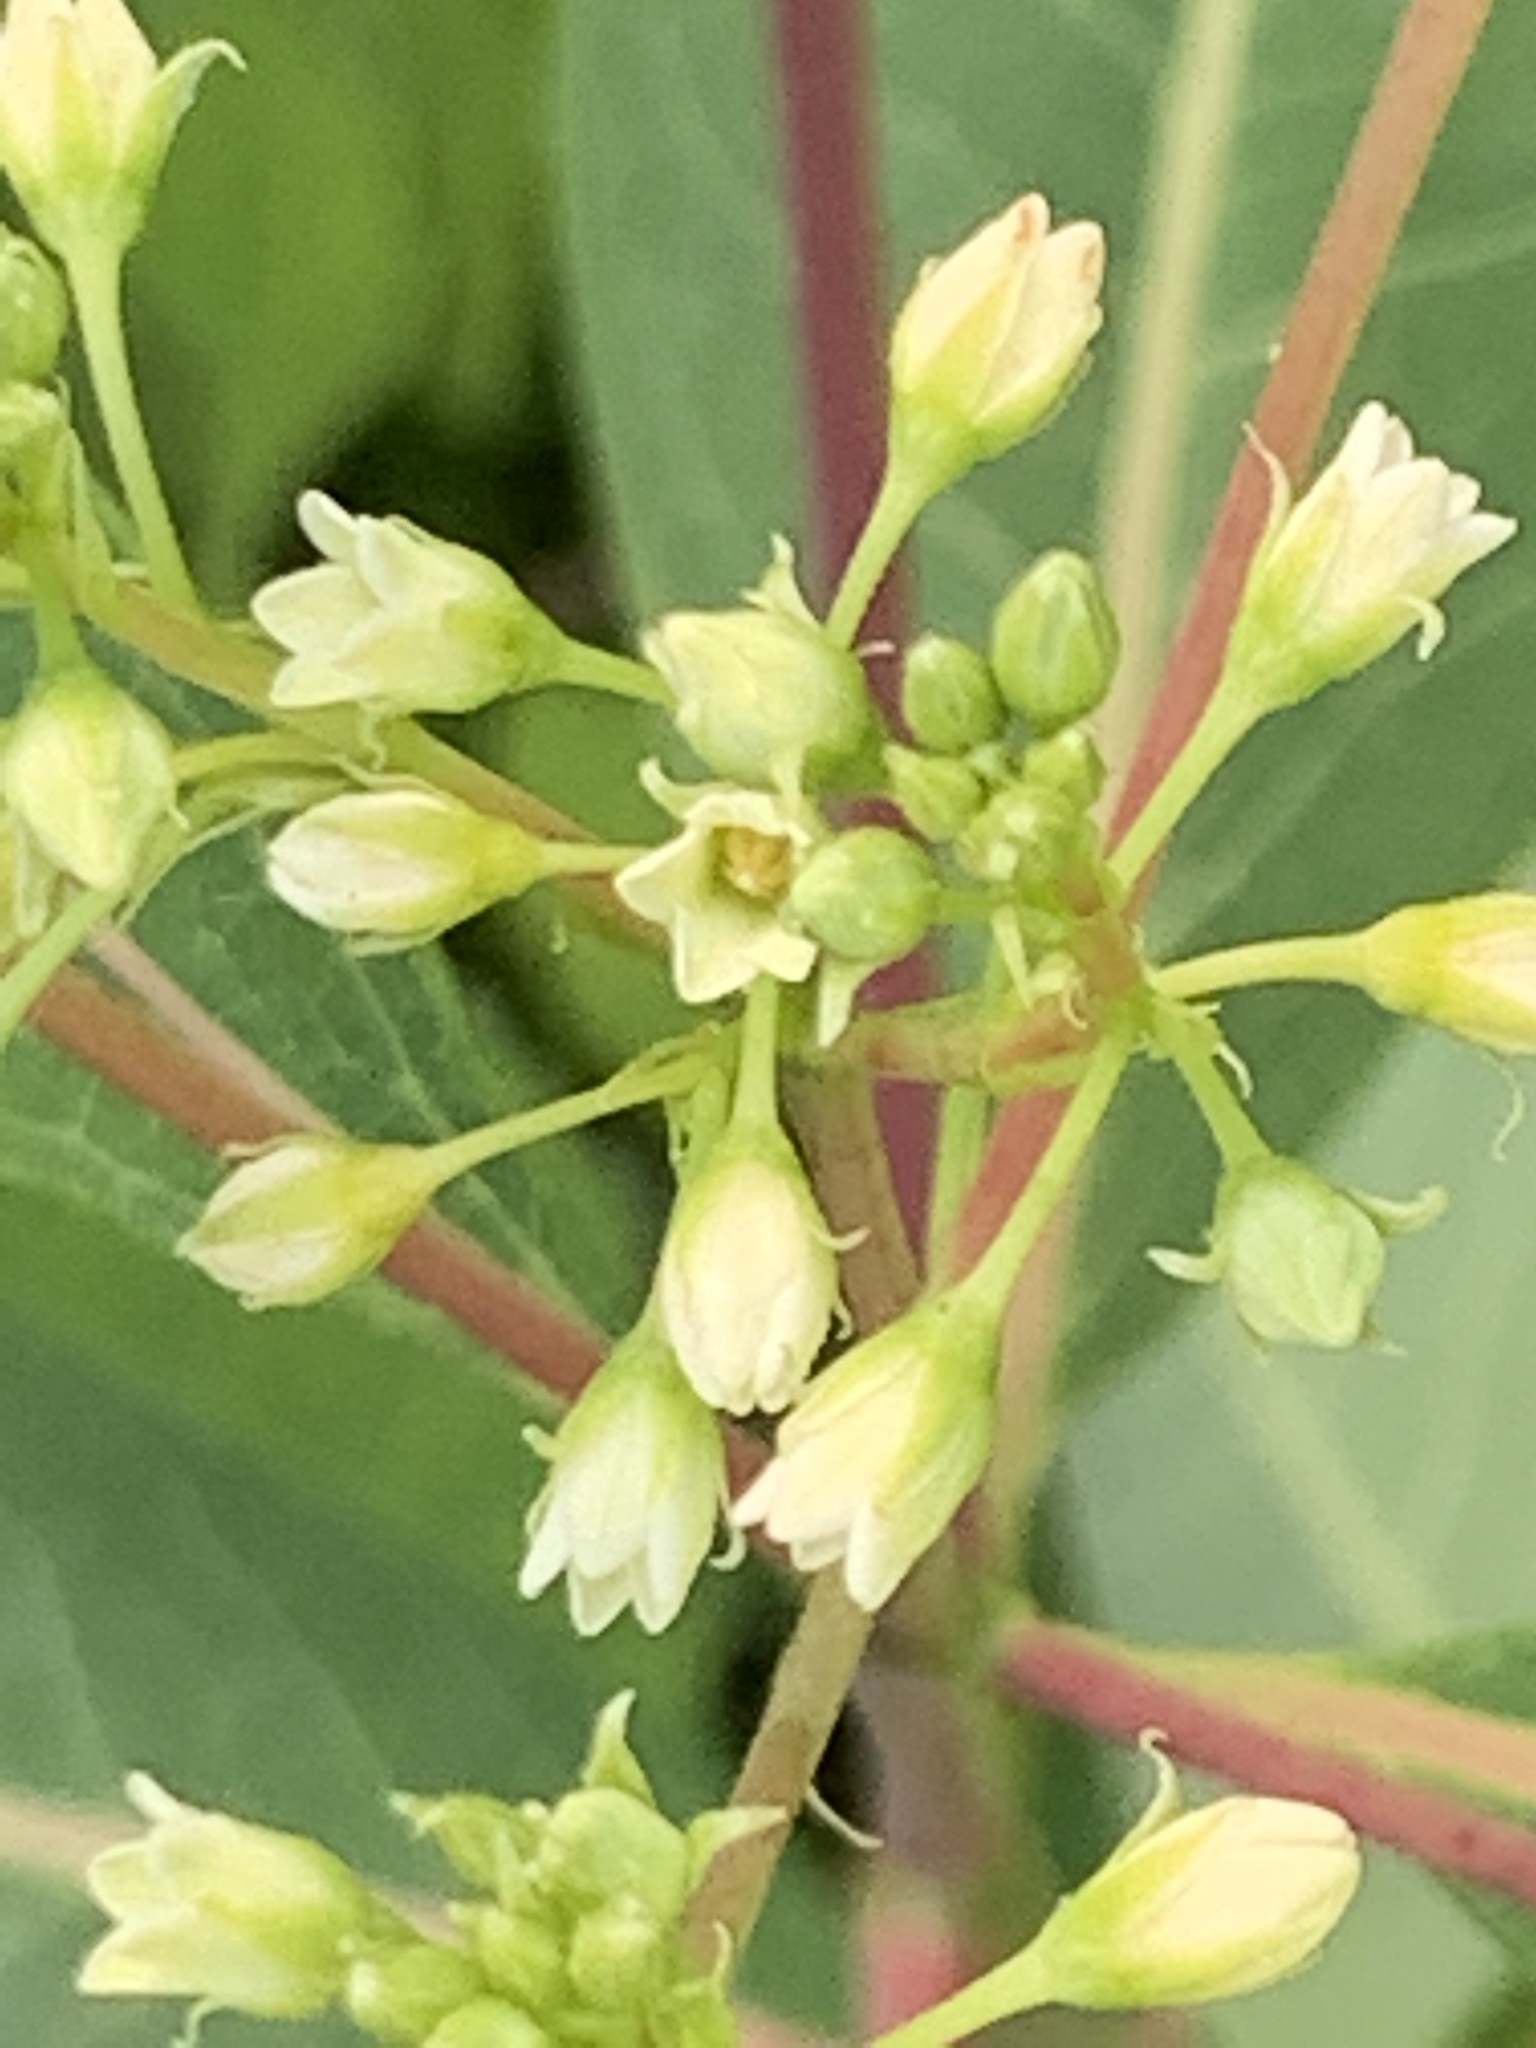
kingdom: Plantae
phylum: Tracheophyta
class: Magnoliopsida
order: Gentianales
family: Apocynaceae
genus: Apocynum
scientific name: Apocynum cannabinum
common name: Hemp dogbane
